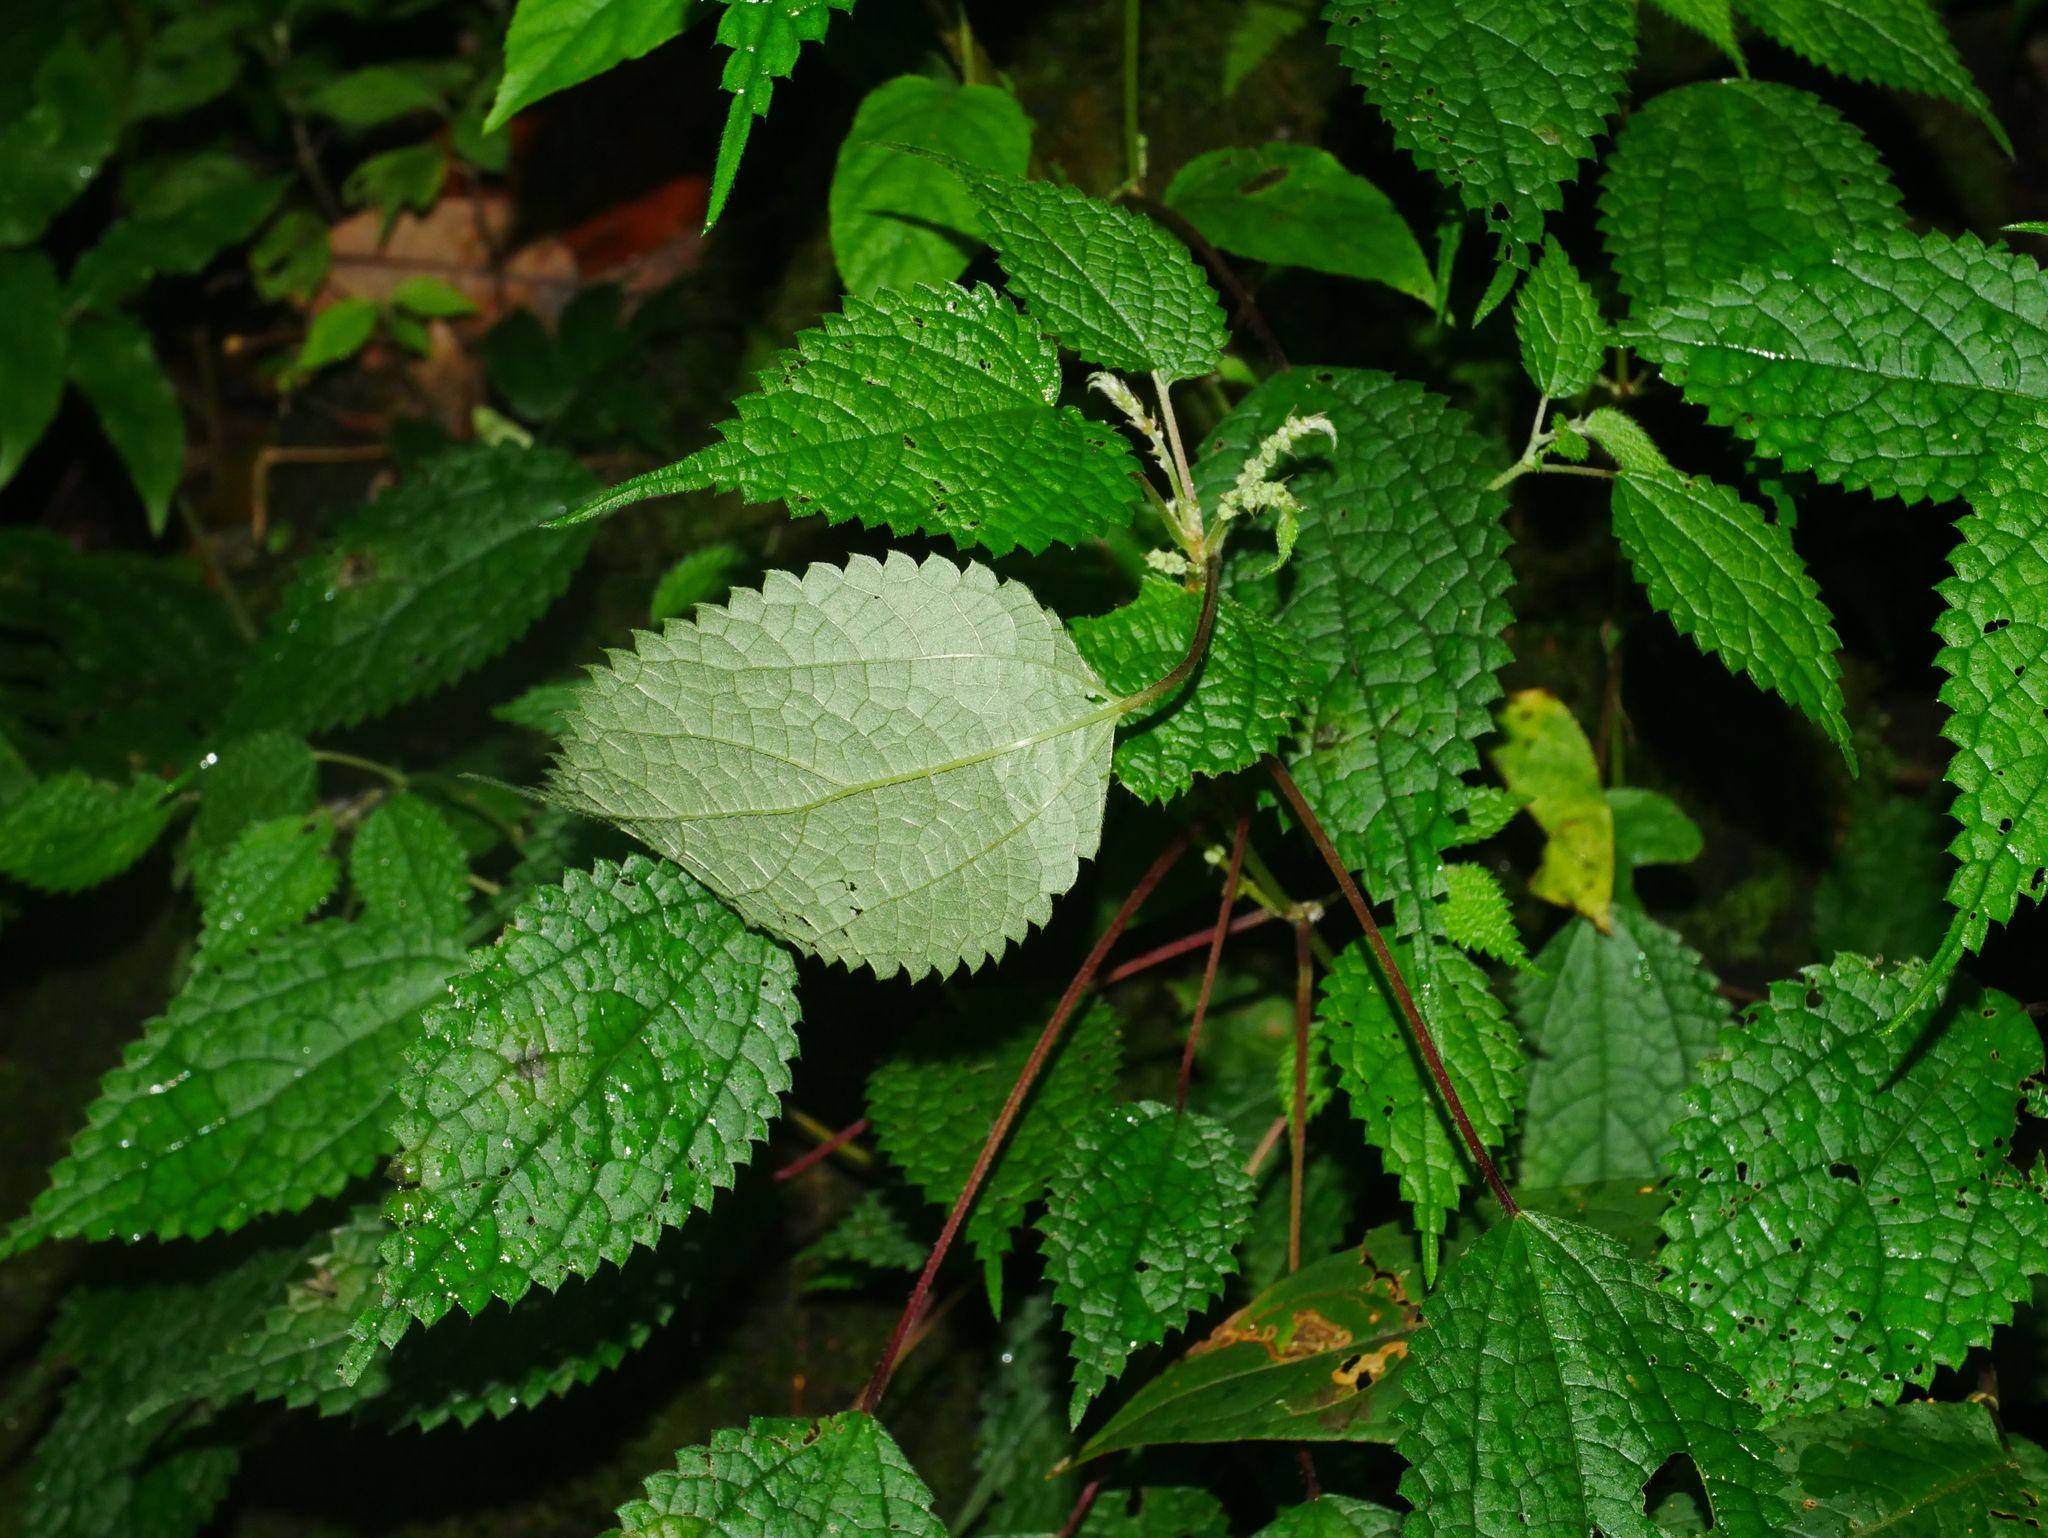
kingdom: Plantae
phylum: Tracheophyta
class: Magnoliopsida
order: Rosales
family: Urticaceae
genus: Boehmeria
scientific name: Boehmeria clidemioides
